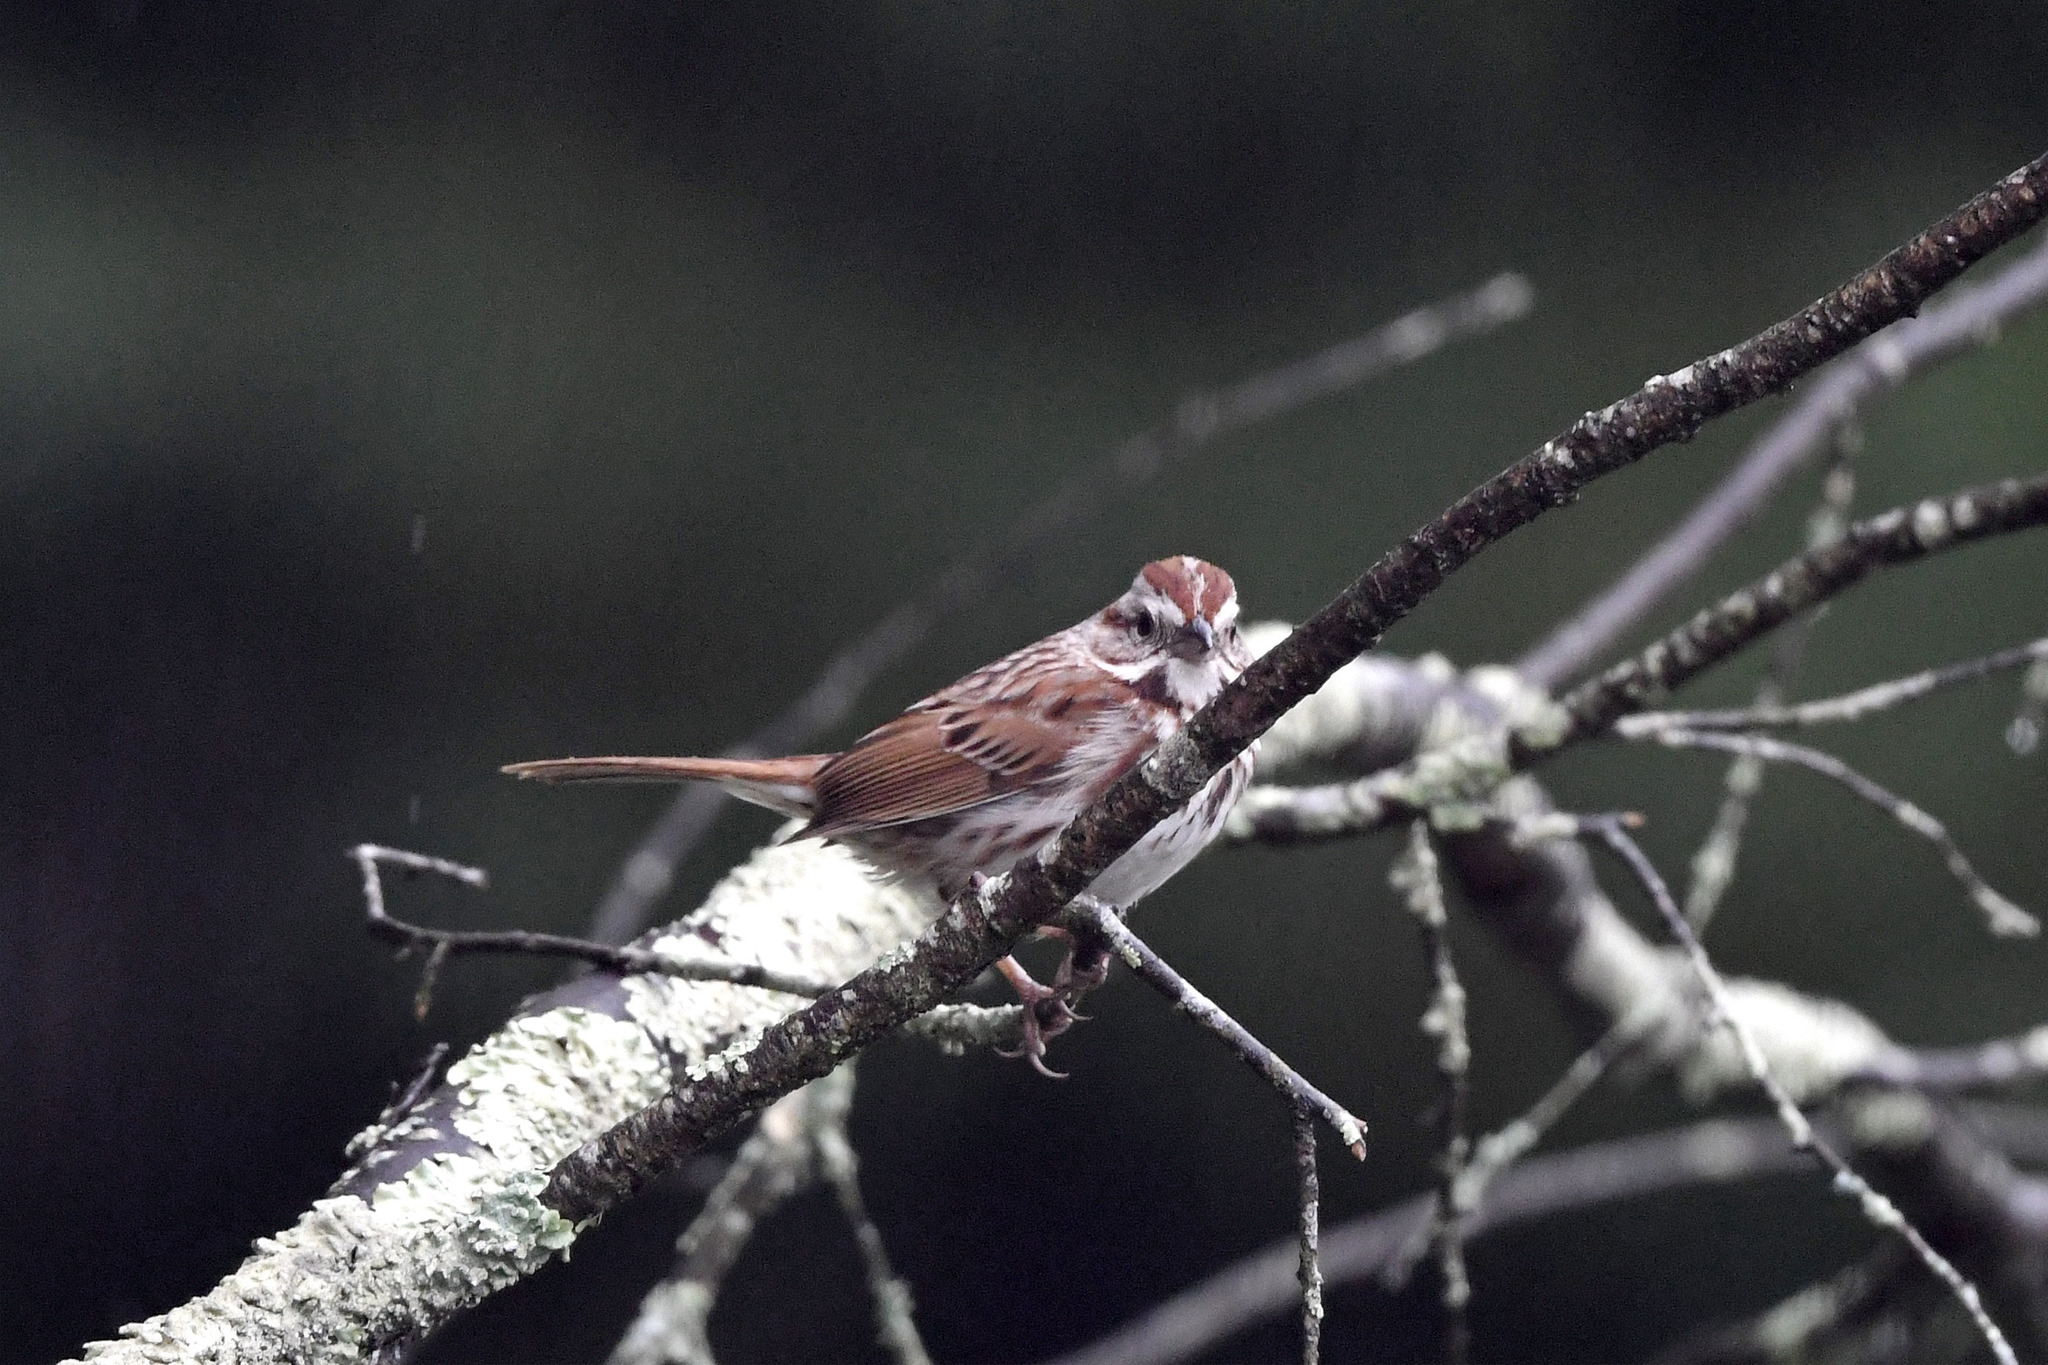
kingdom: Animalia
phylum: Chordata
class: Aves
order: Passeriformes
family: Passerellidae
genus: Melospiza
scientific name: Melospiza melodia
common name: Song sparrow
